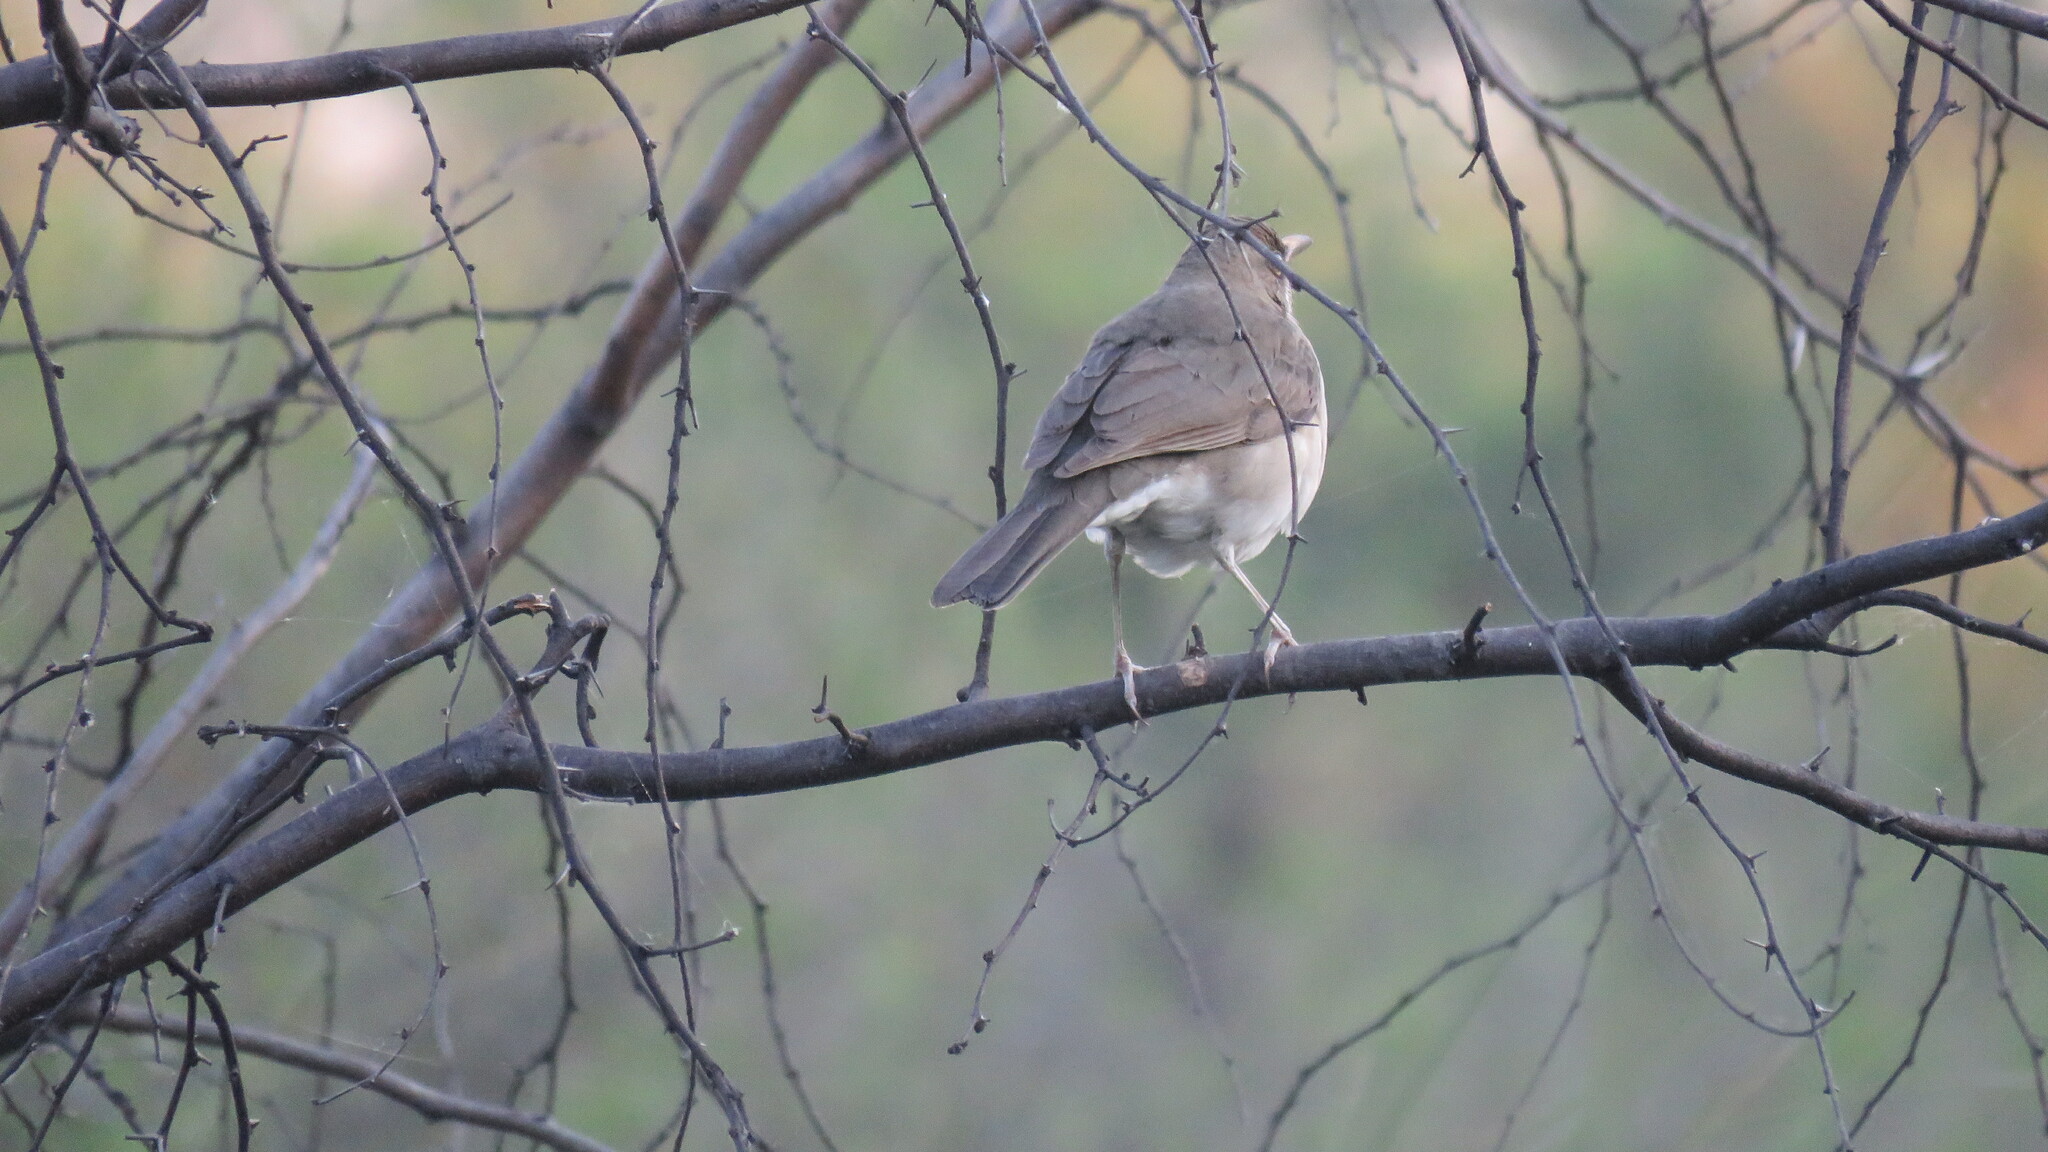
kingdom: Animalia
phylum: Chordata
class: Aves
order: Passeriformes
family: Turdidae
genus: Turdus
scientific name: Turdus amaurochalinus
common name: Creamy-bellied thrush
